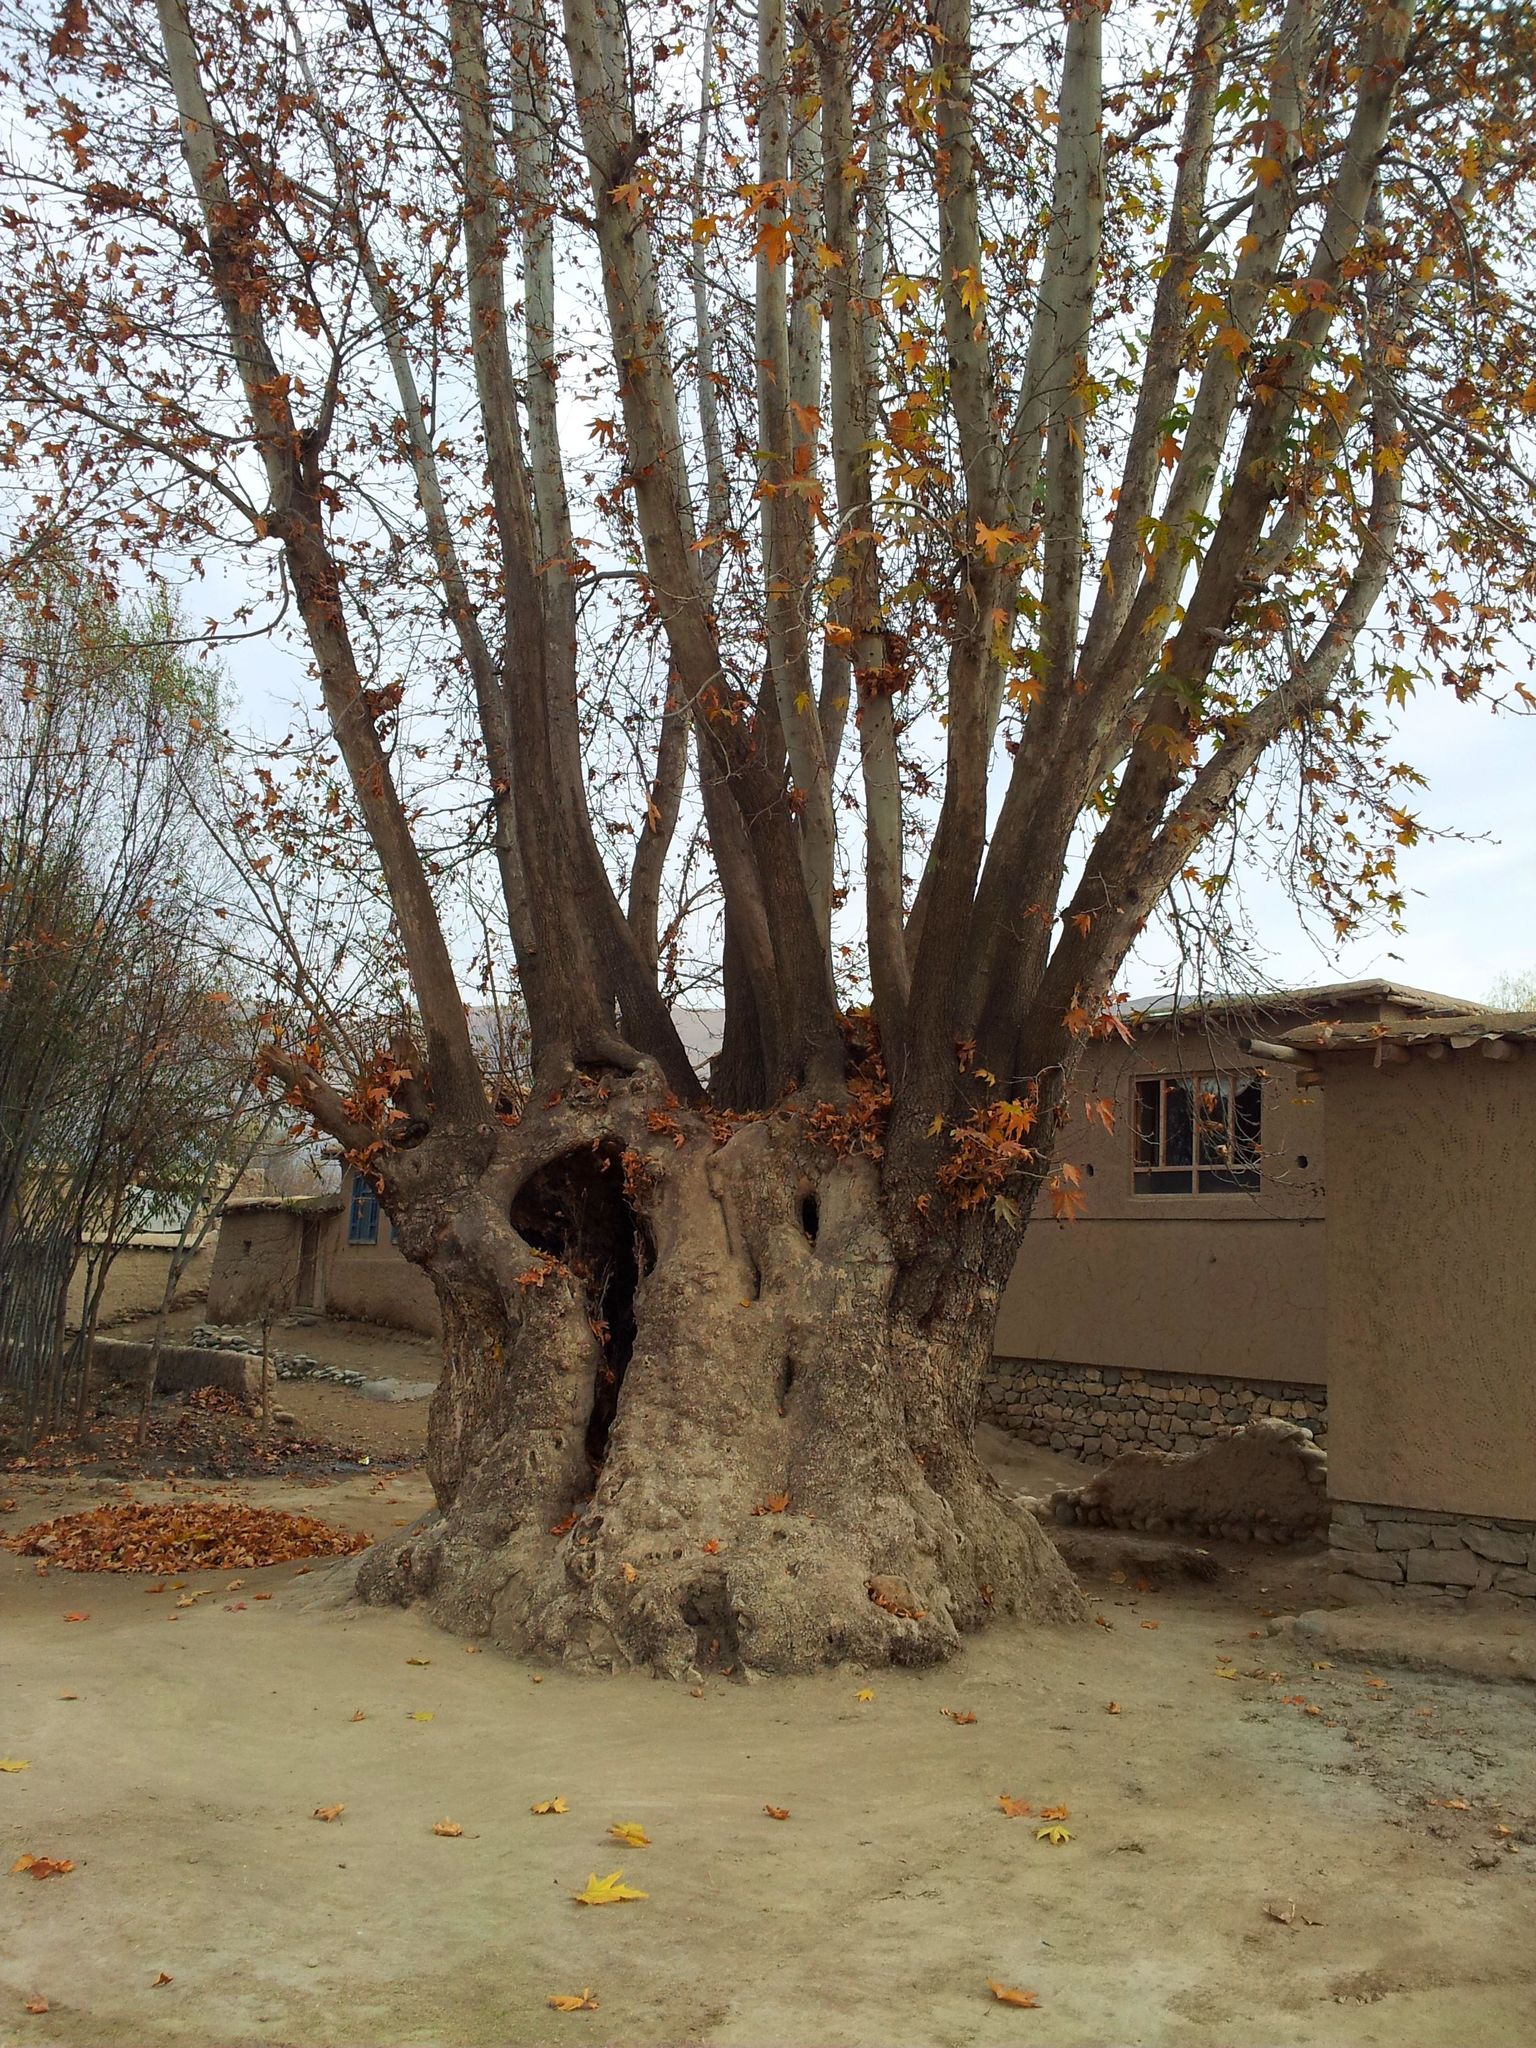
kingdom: Plantae
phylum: Tracheophyta
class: Magnoliopsida
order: Proteales
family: Platanaceae
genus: Platanus
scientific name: Platanus orientalis
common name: Oriental plane
